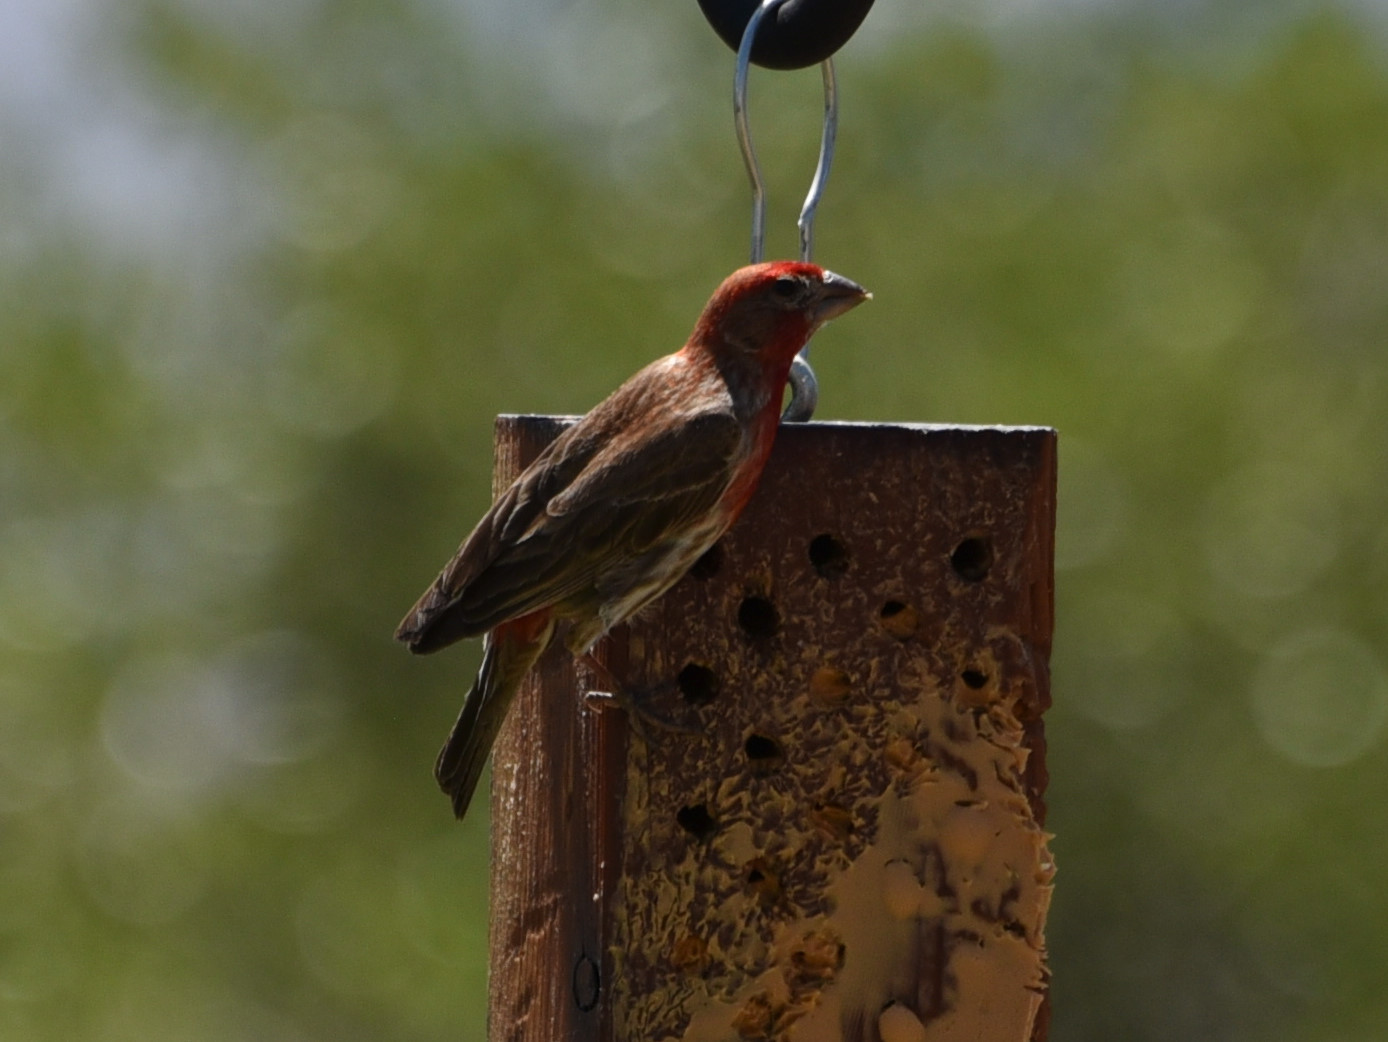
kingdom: Animalia
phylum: Chordata
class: Aves
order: Passeriformes
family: Fringillidae
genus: Haemorhous
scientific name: Haemorhous mexicanus
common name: House finch
